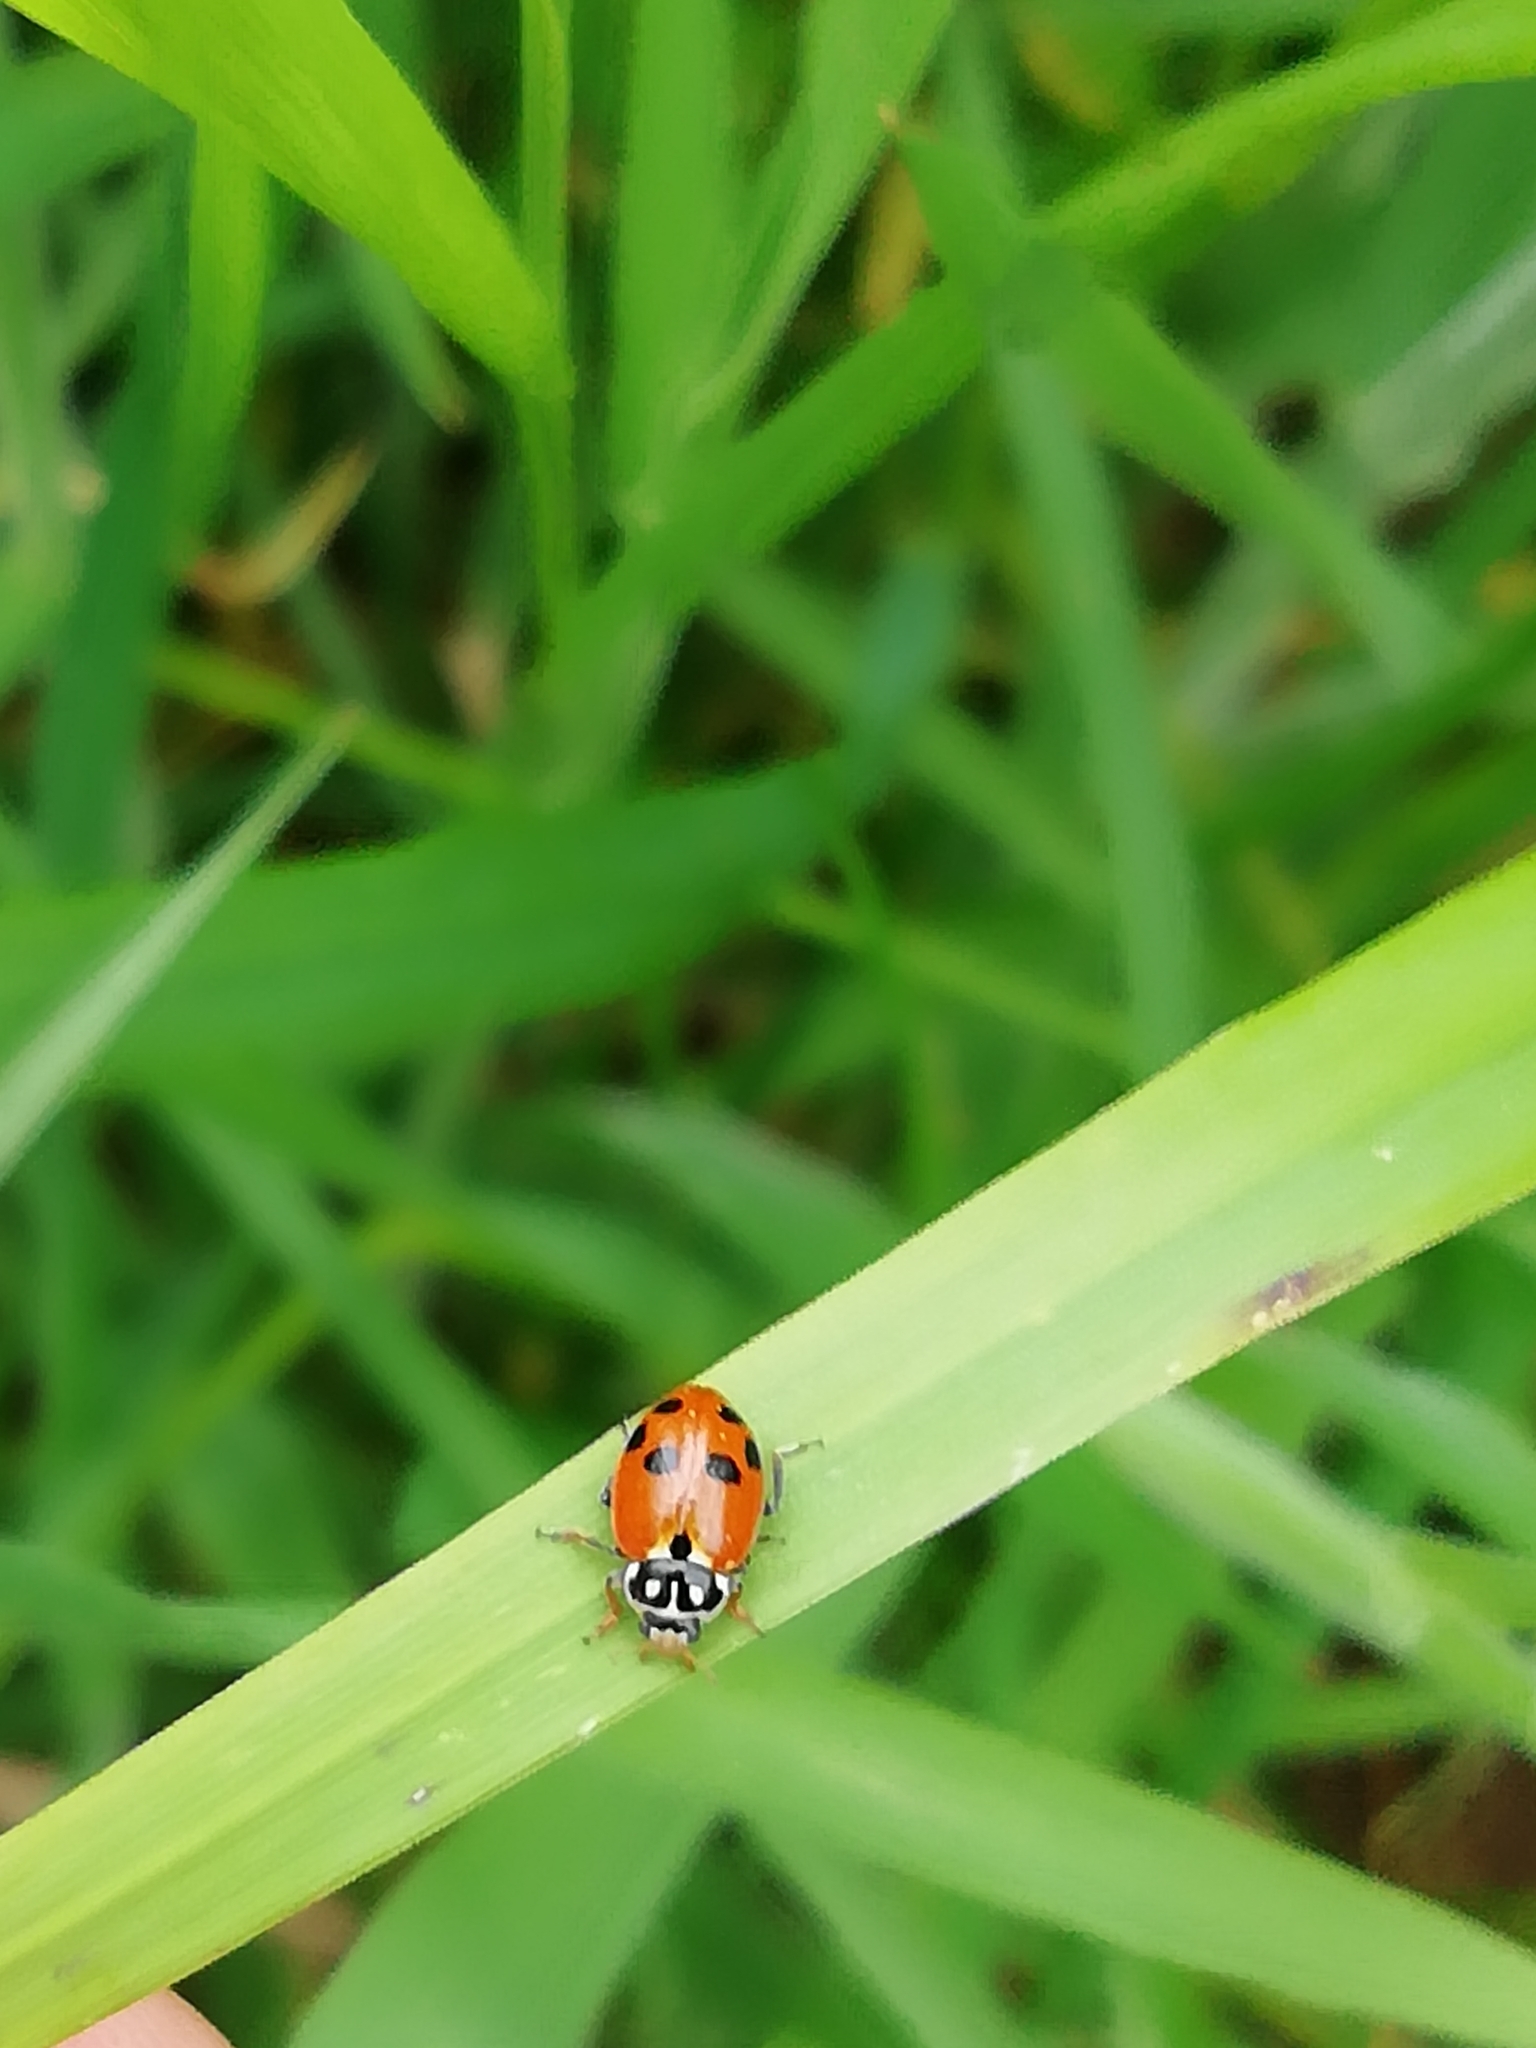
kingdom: Animalia
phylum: Arthropoda
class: Insecta
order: Coleoptera
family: Coccinellidae
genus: Hippodamia
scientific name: Hippodamia variegata
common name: Ladybird beetle
